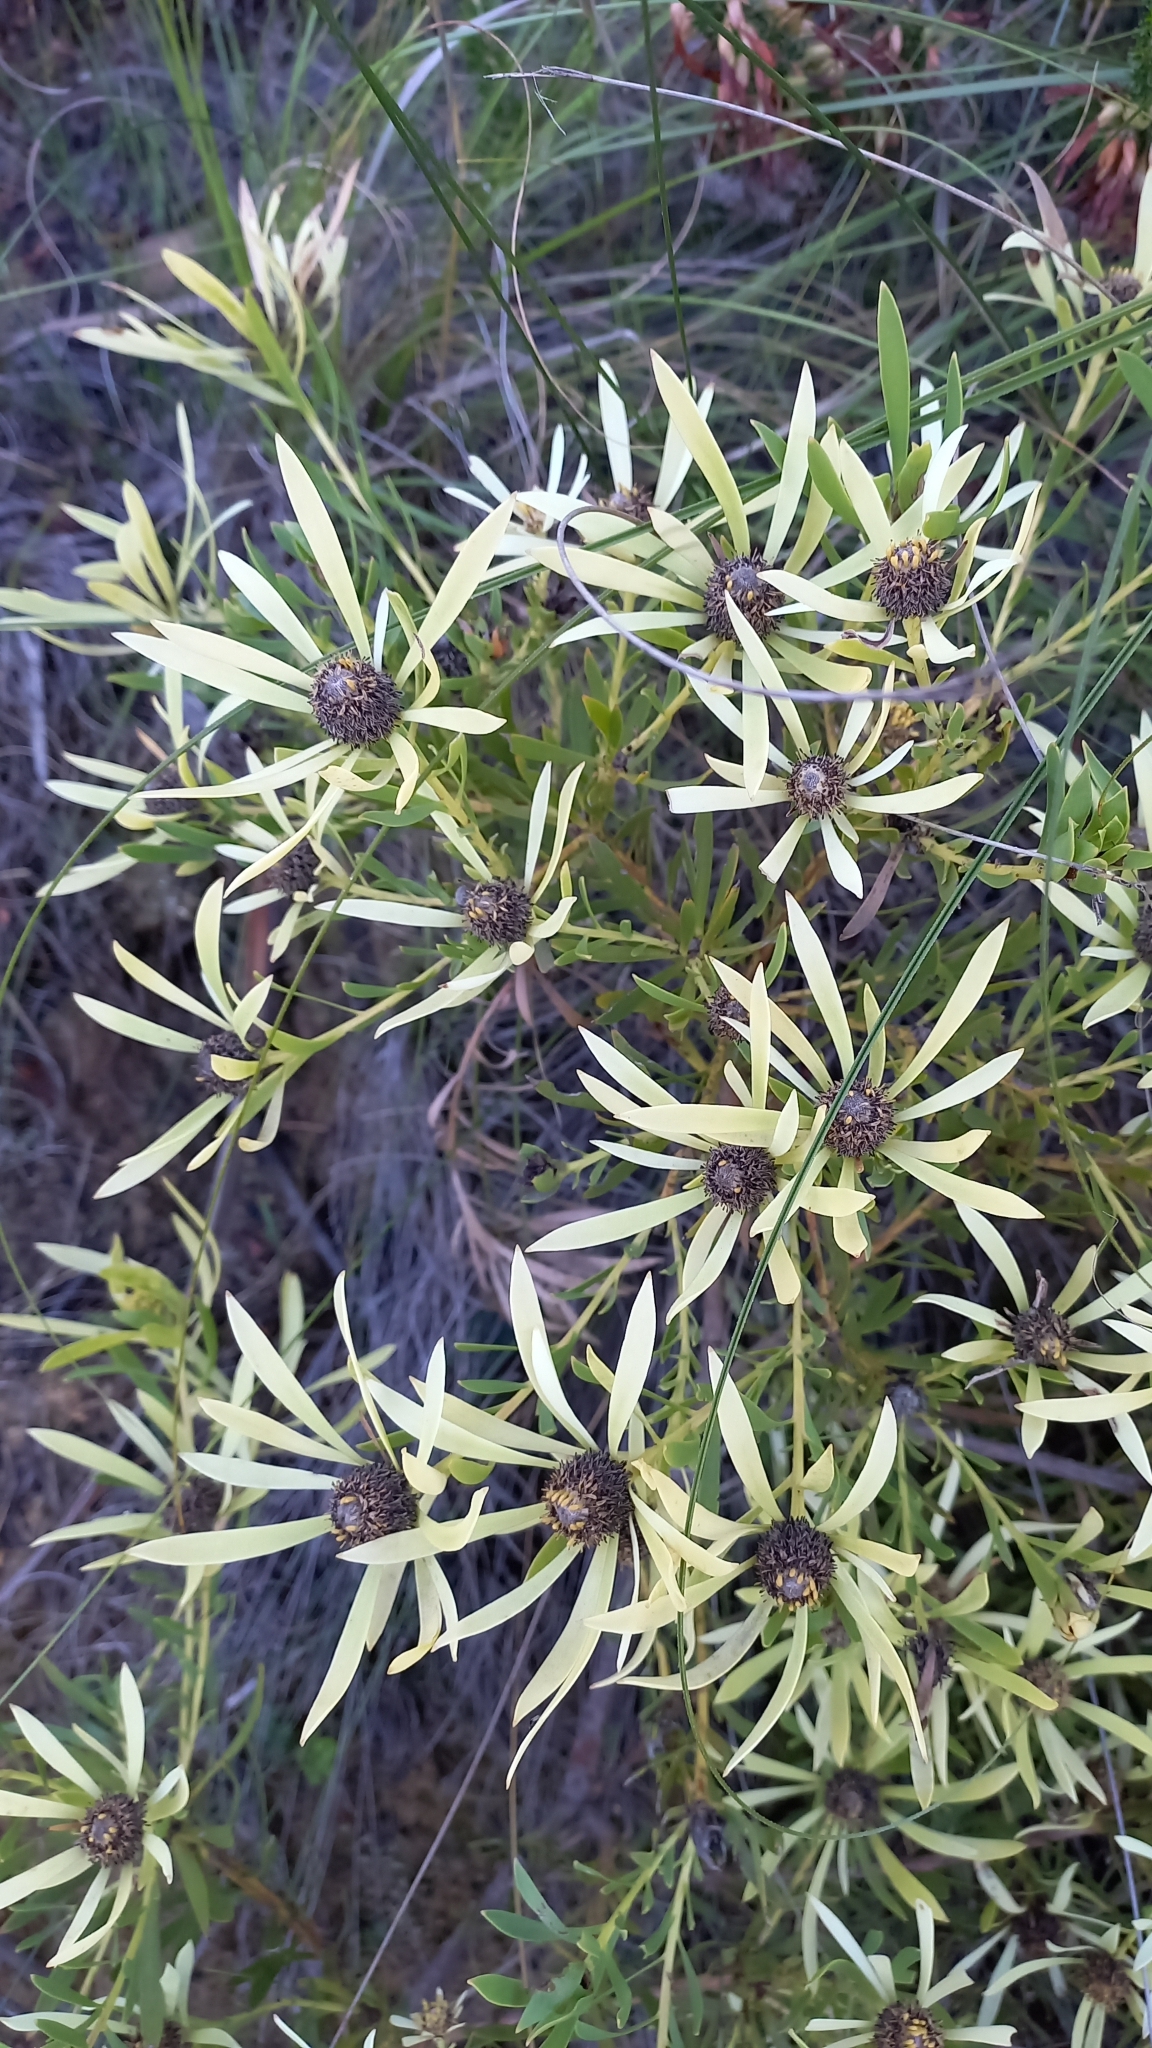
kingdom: Plantae
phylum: Tracheophyta
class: Magnoliopsida
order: Proteales
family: Proteaceae
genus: Leucadendron
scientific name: Leucadendron salignum
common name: Common sunshine conebush
